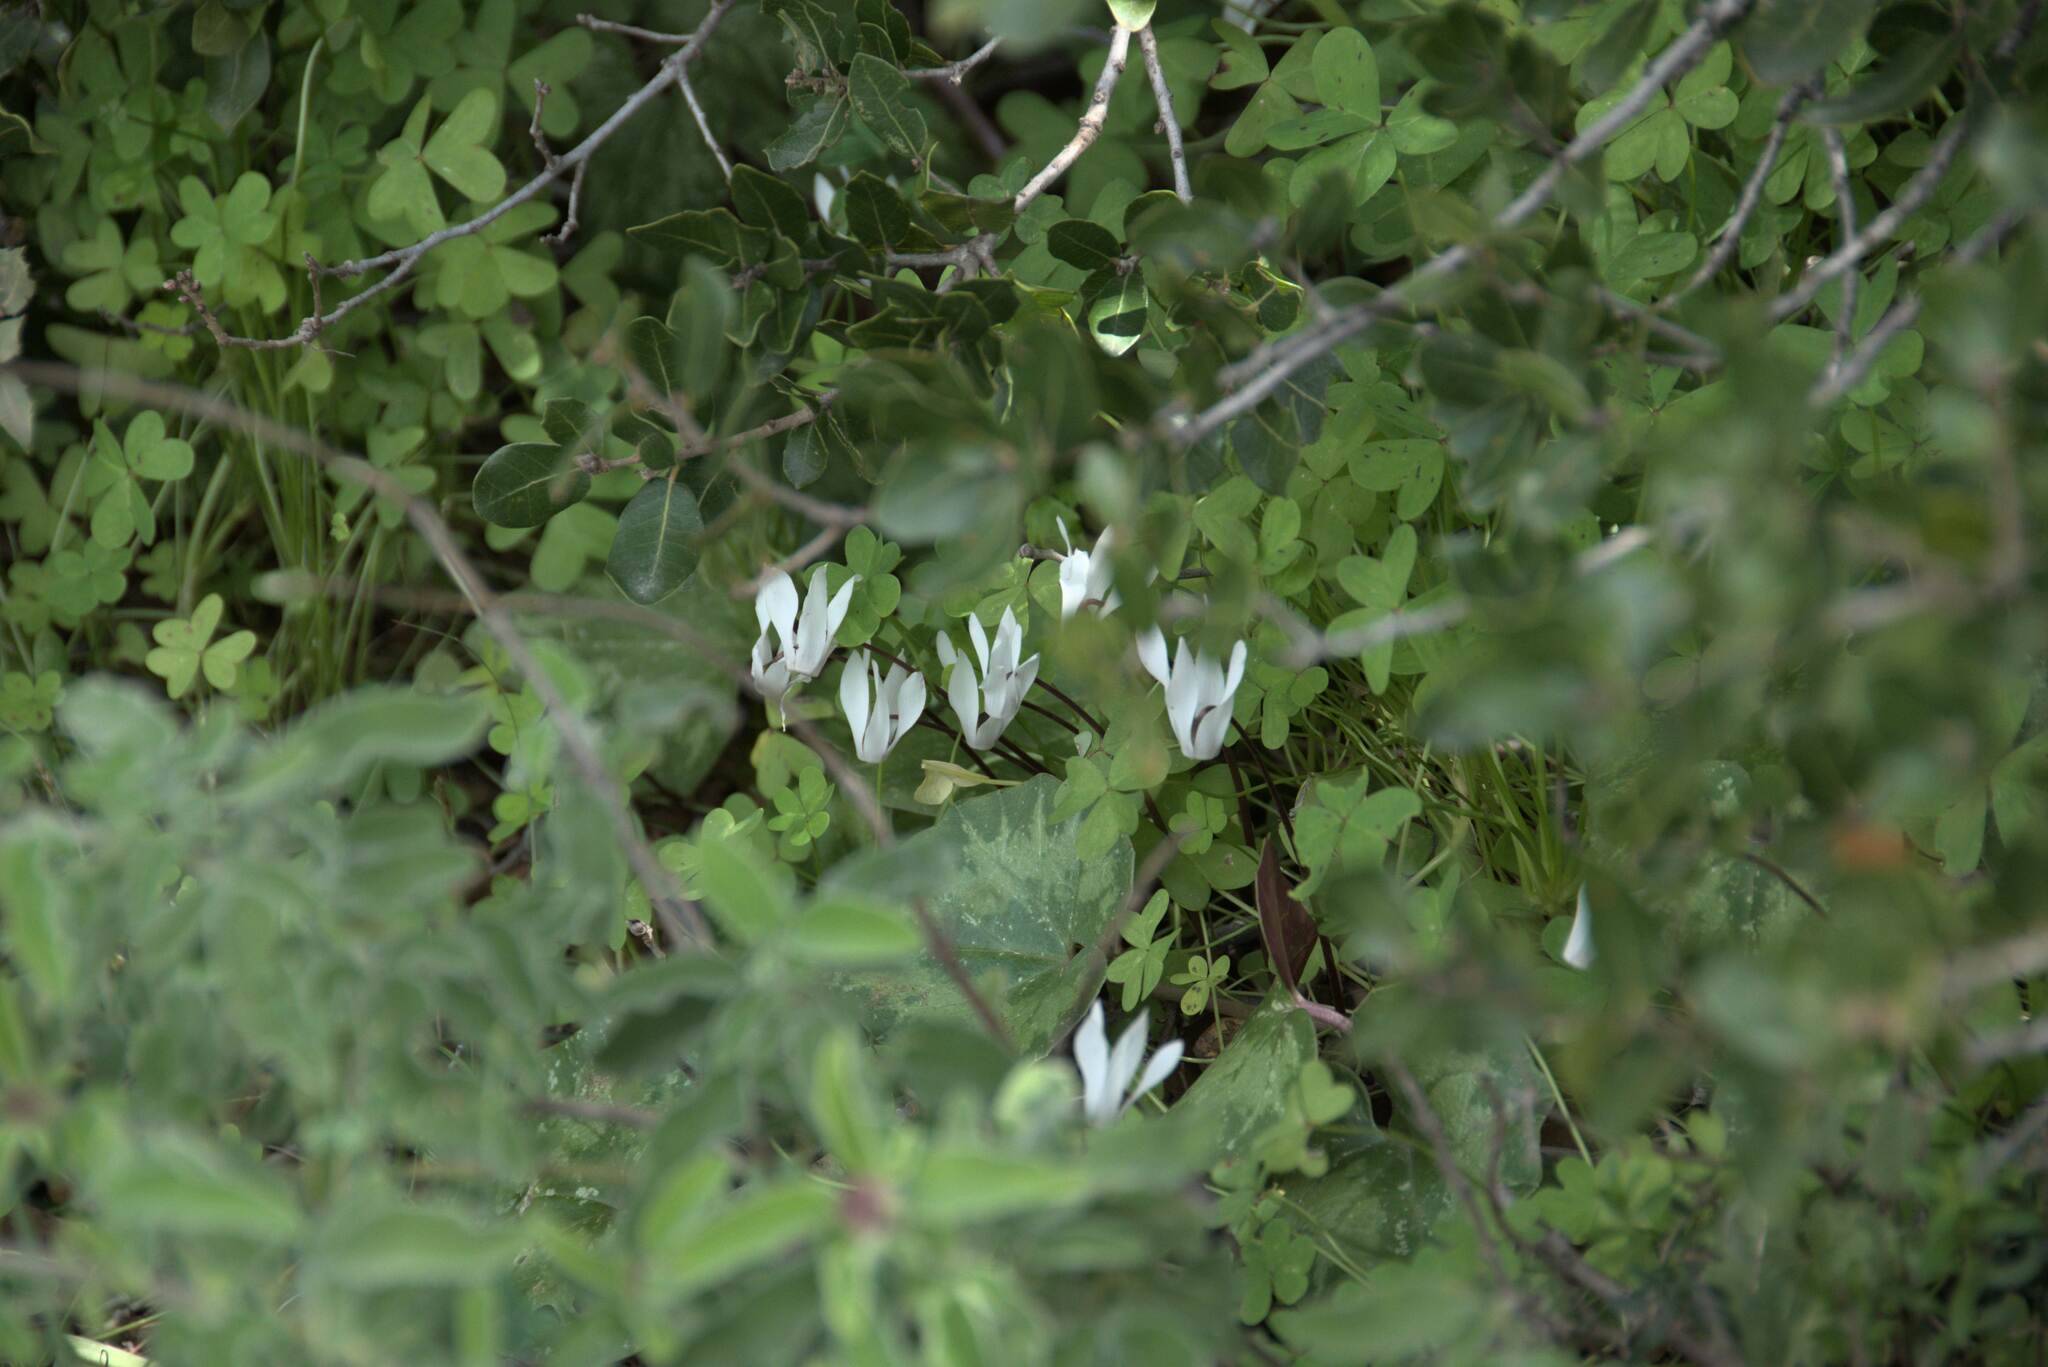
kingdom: Plantae
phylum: Tracheophyta
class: Magnoliopsida
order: Ericales
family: Primulaceae
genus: Cyclamen
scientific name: Cyclamen creticum
